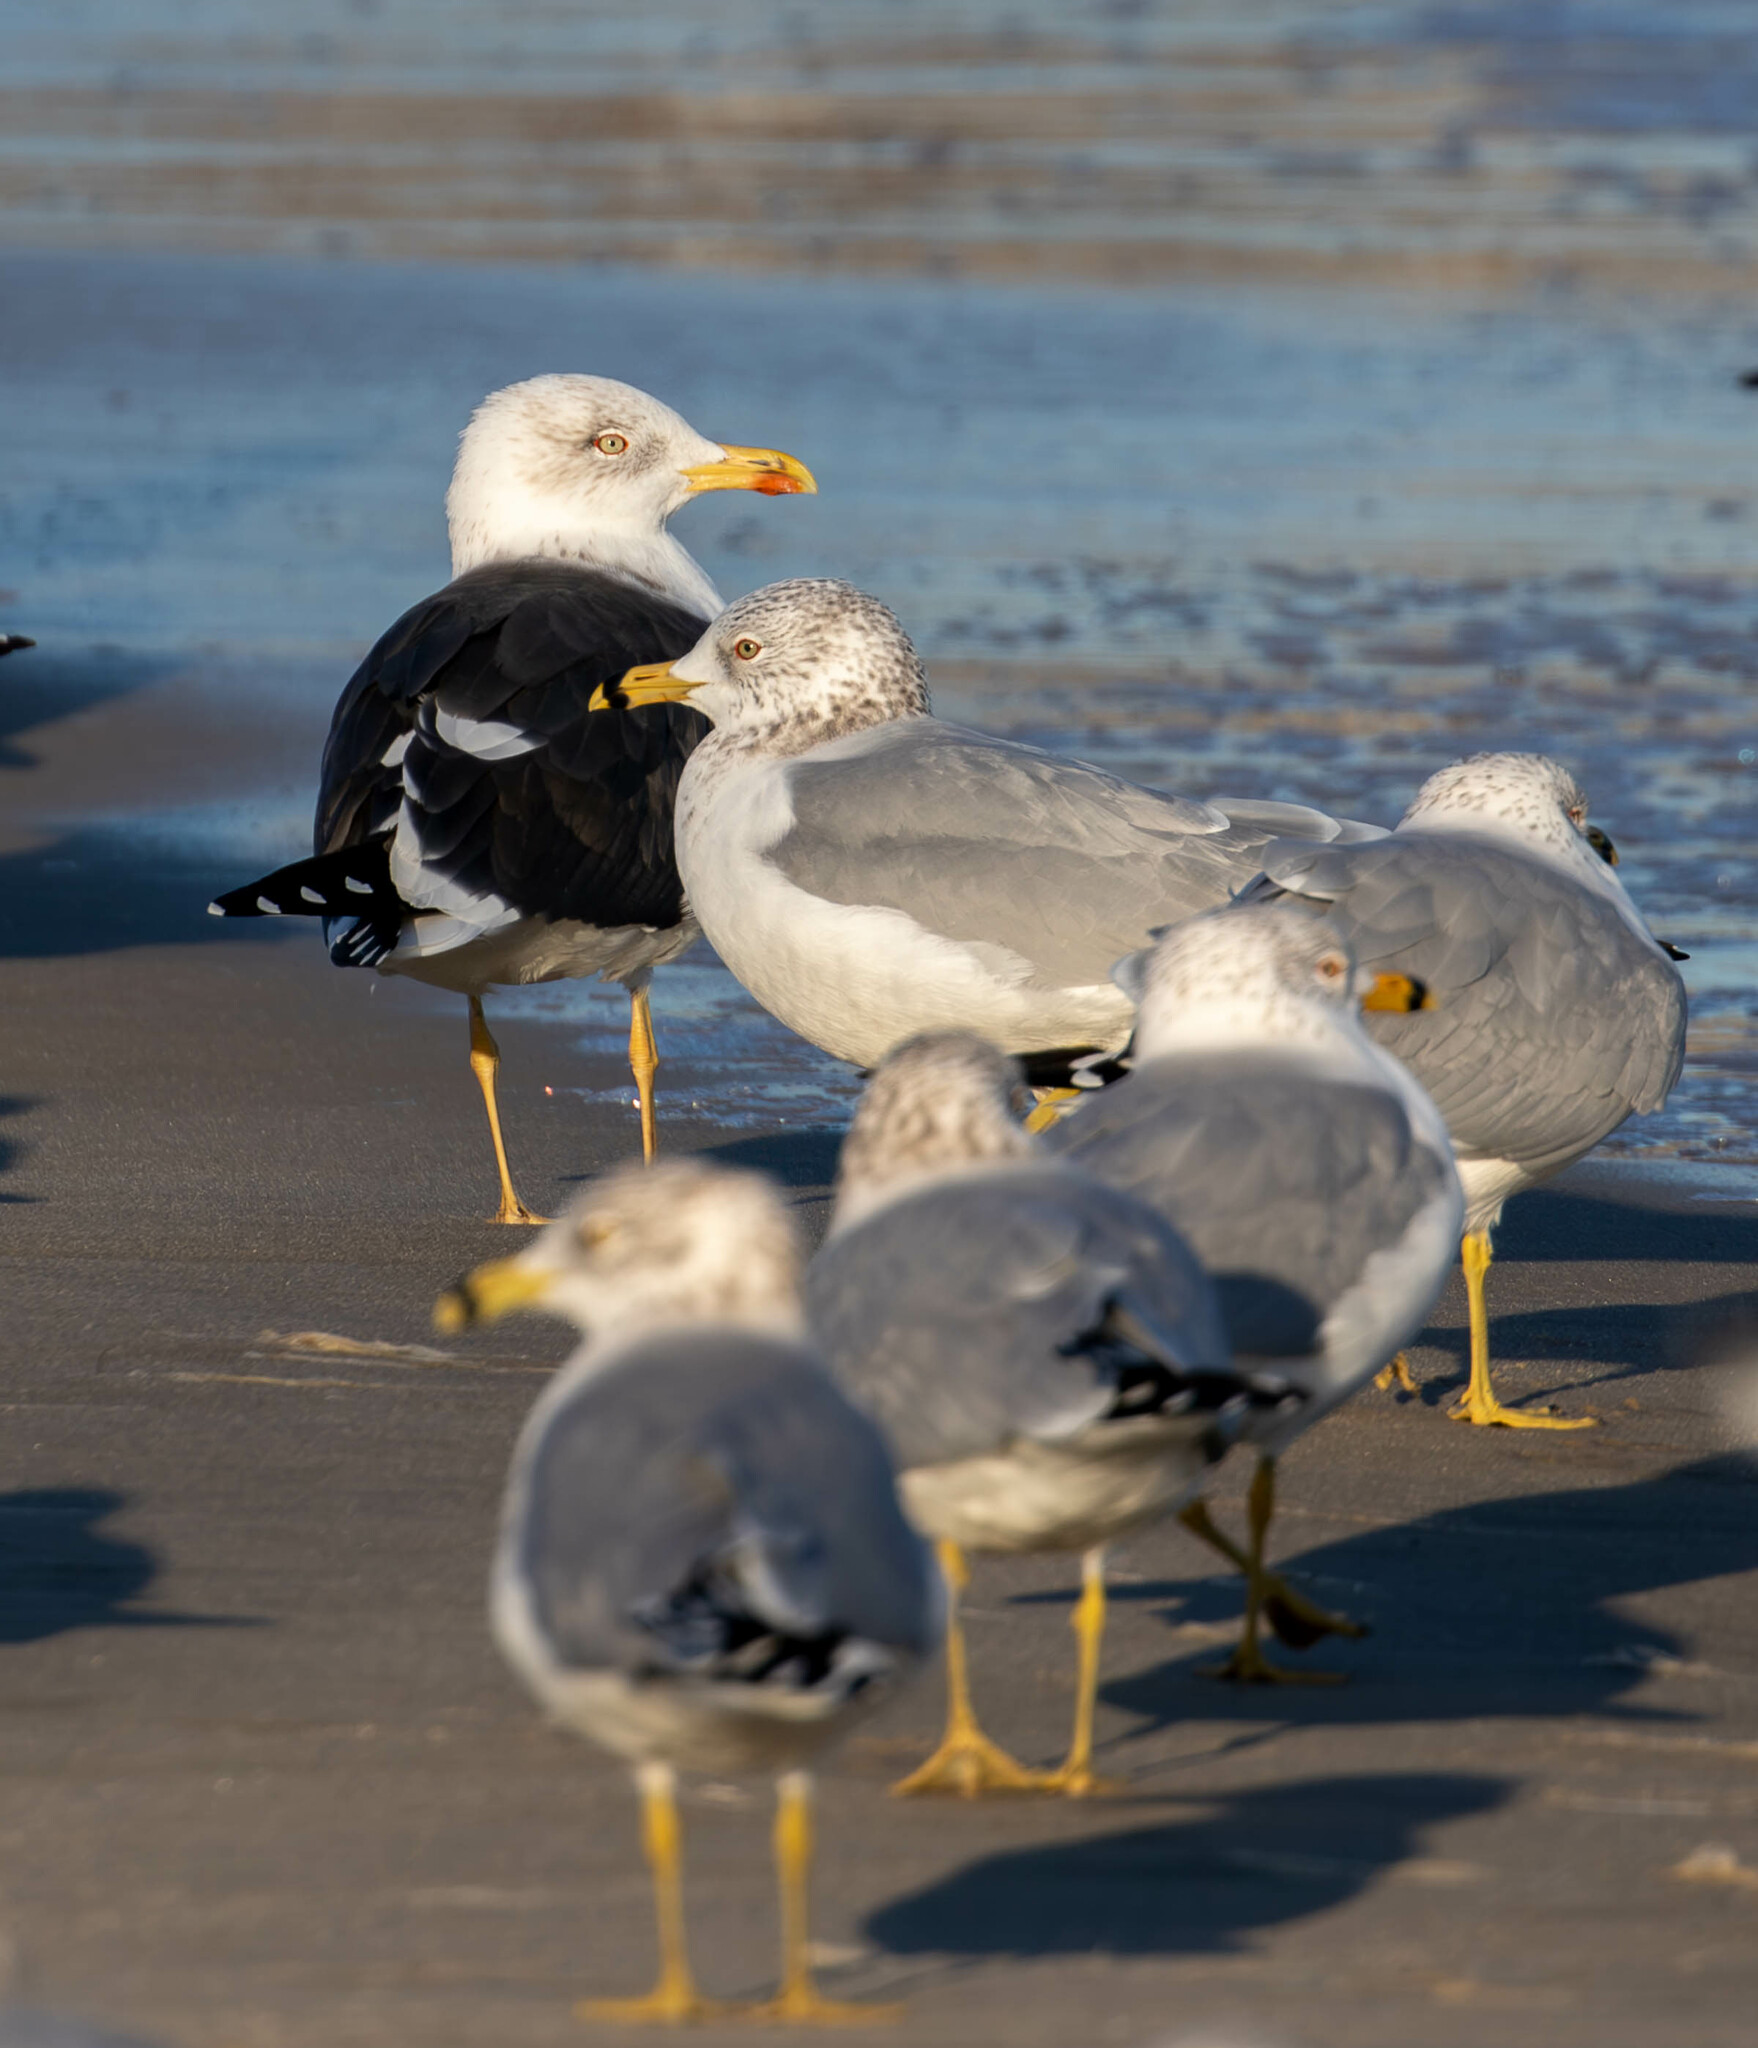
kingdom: Animalia
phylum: Chordata
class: Aves
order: Charadriiformes
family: Laridae
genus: Larus
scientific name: Larus fuscus
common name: Lesser black-backed gull
